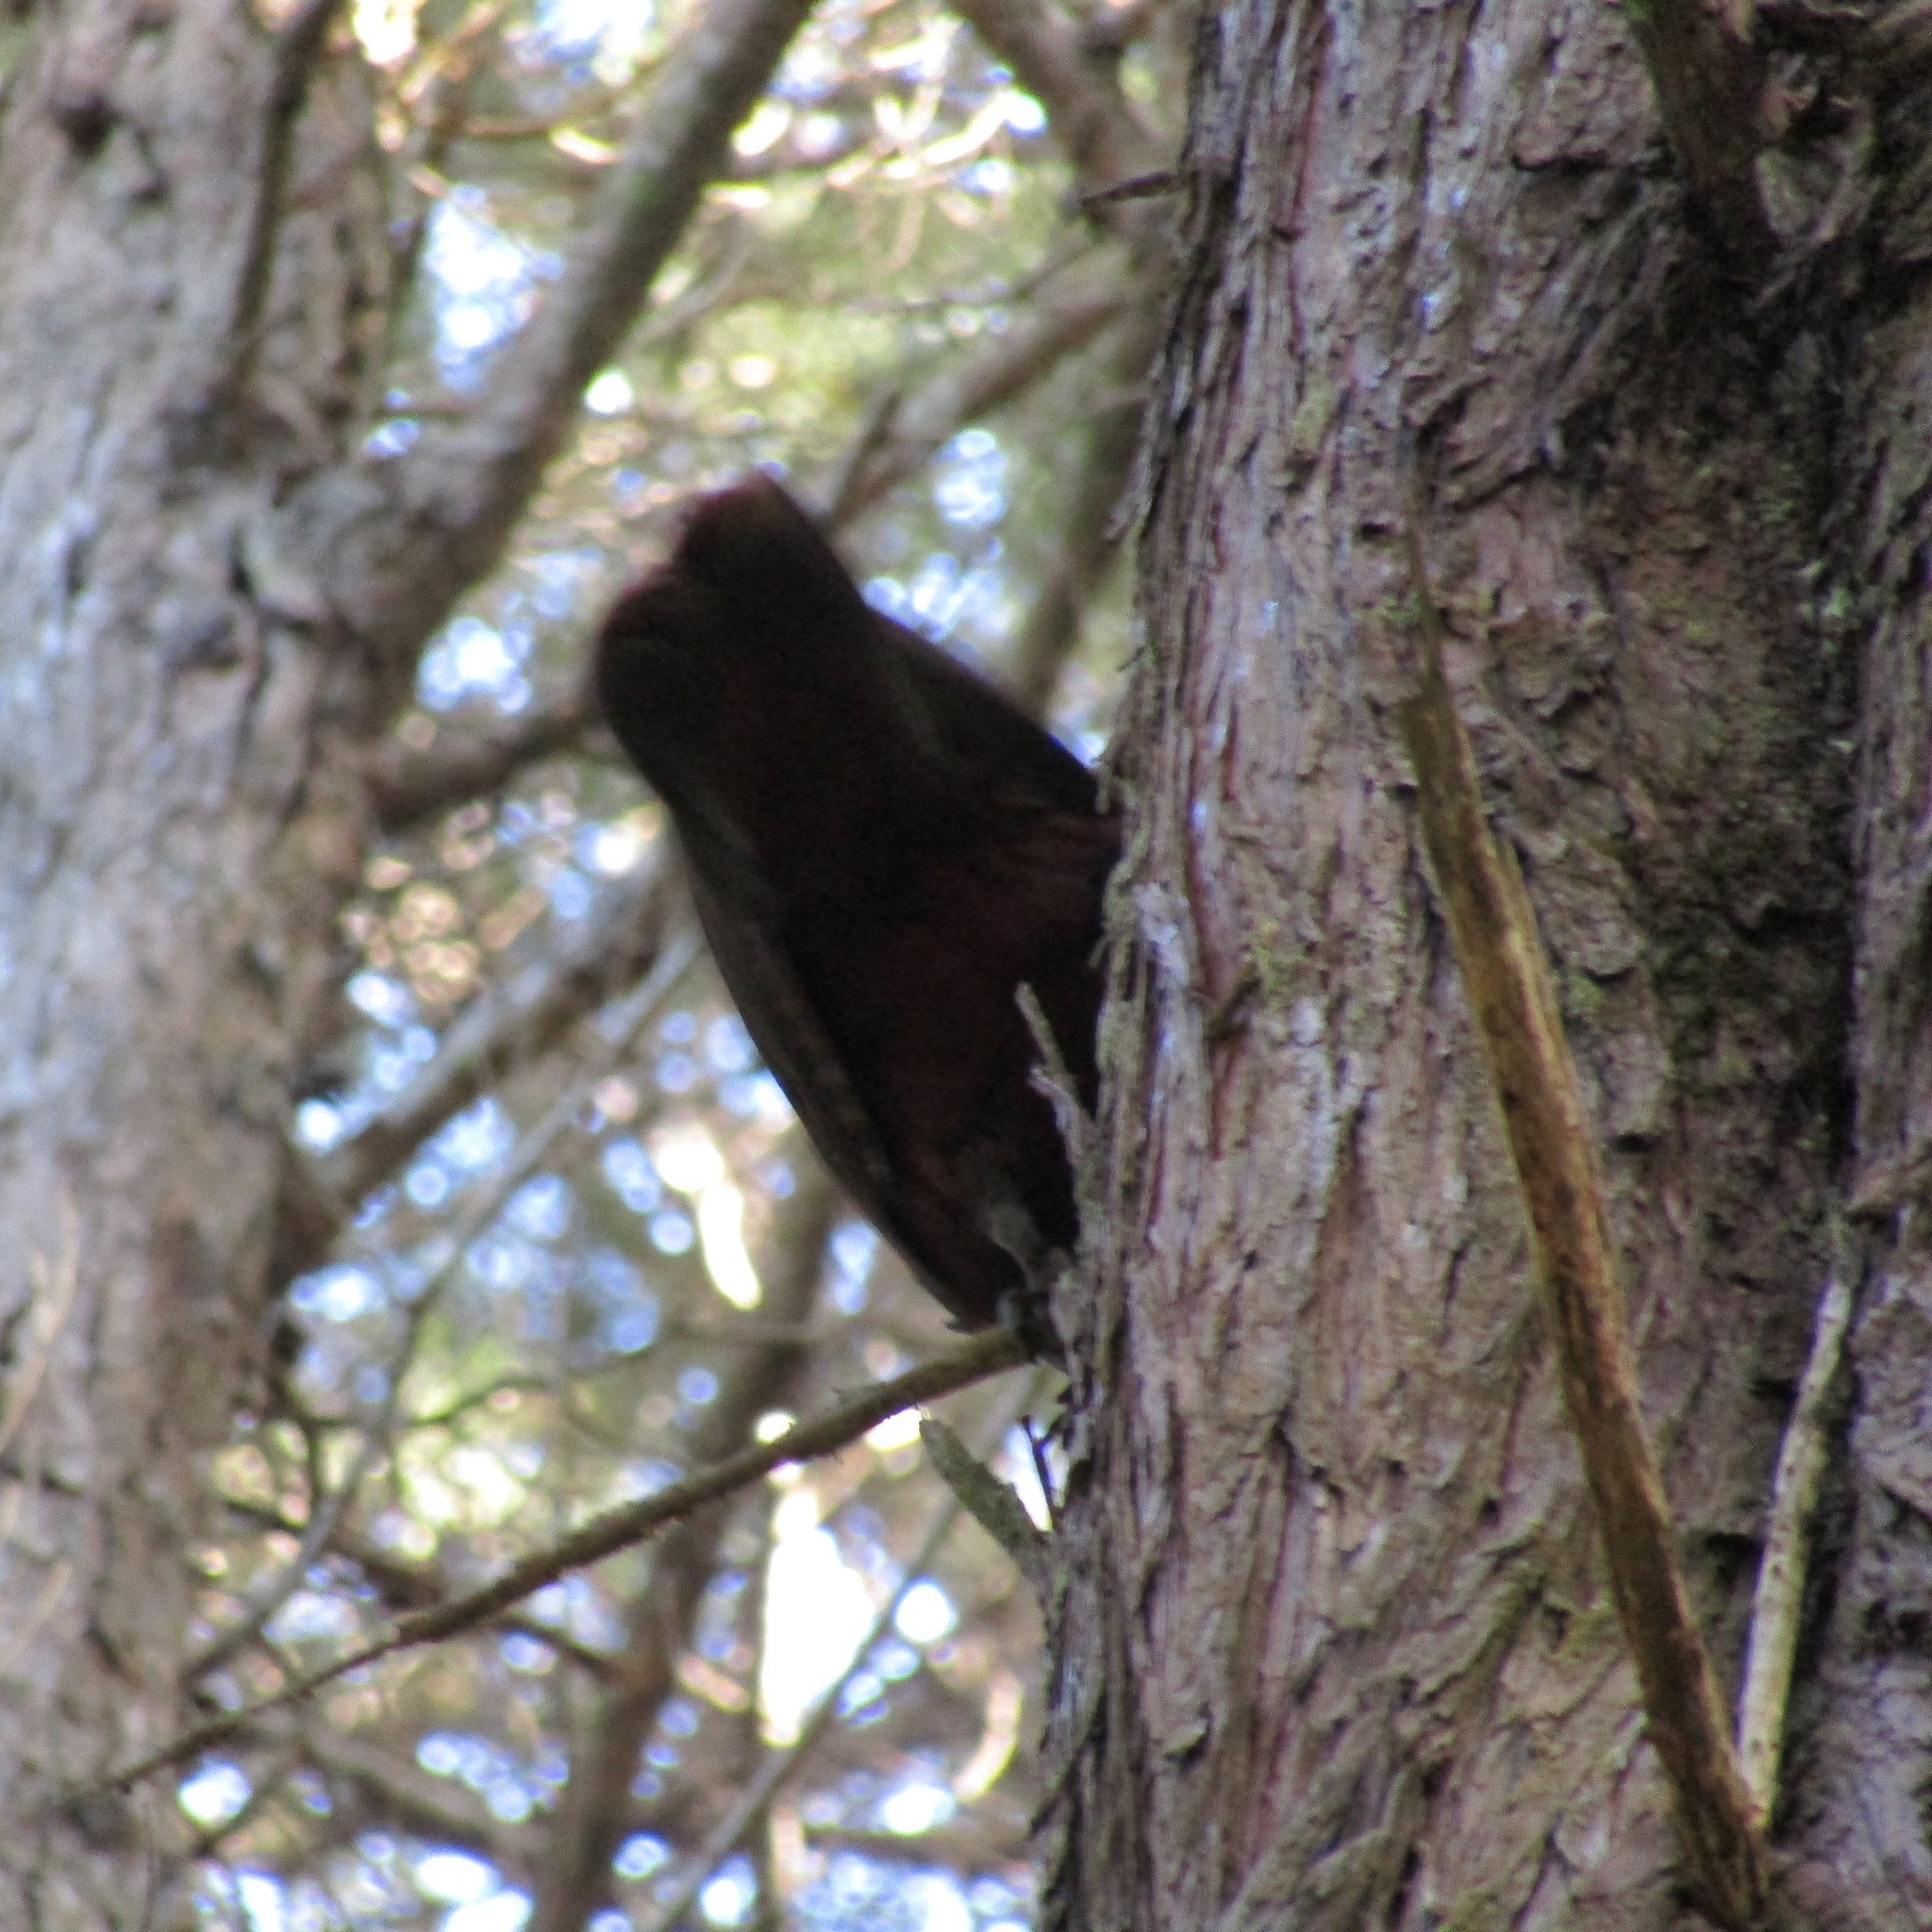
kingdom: Animalia
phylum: Chordata
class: Aves
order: Psittaciformes
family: Psittacidae
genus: Nestor
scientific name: Nestor meridionalis
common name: New zealand kaka
